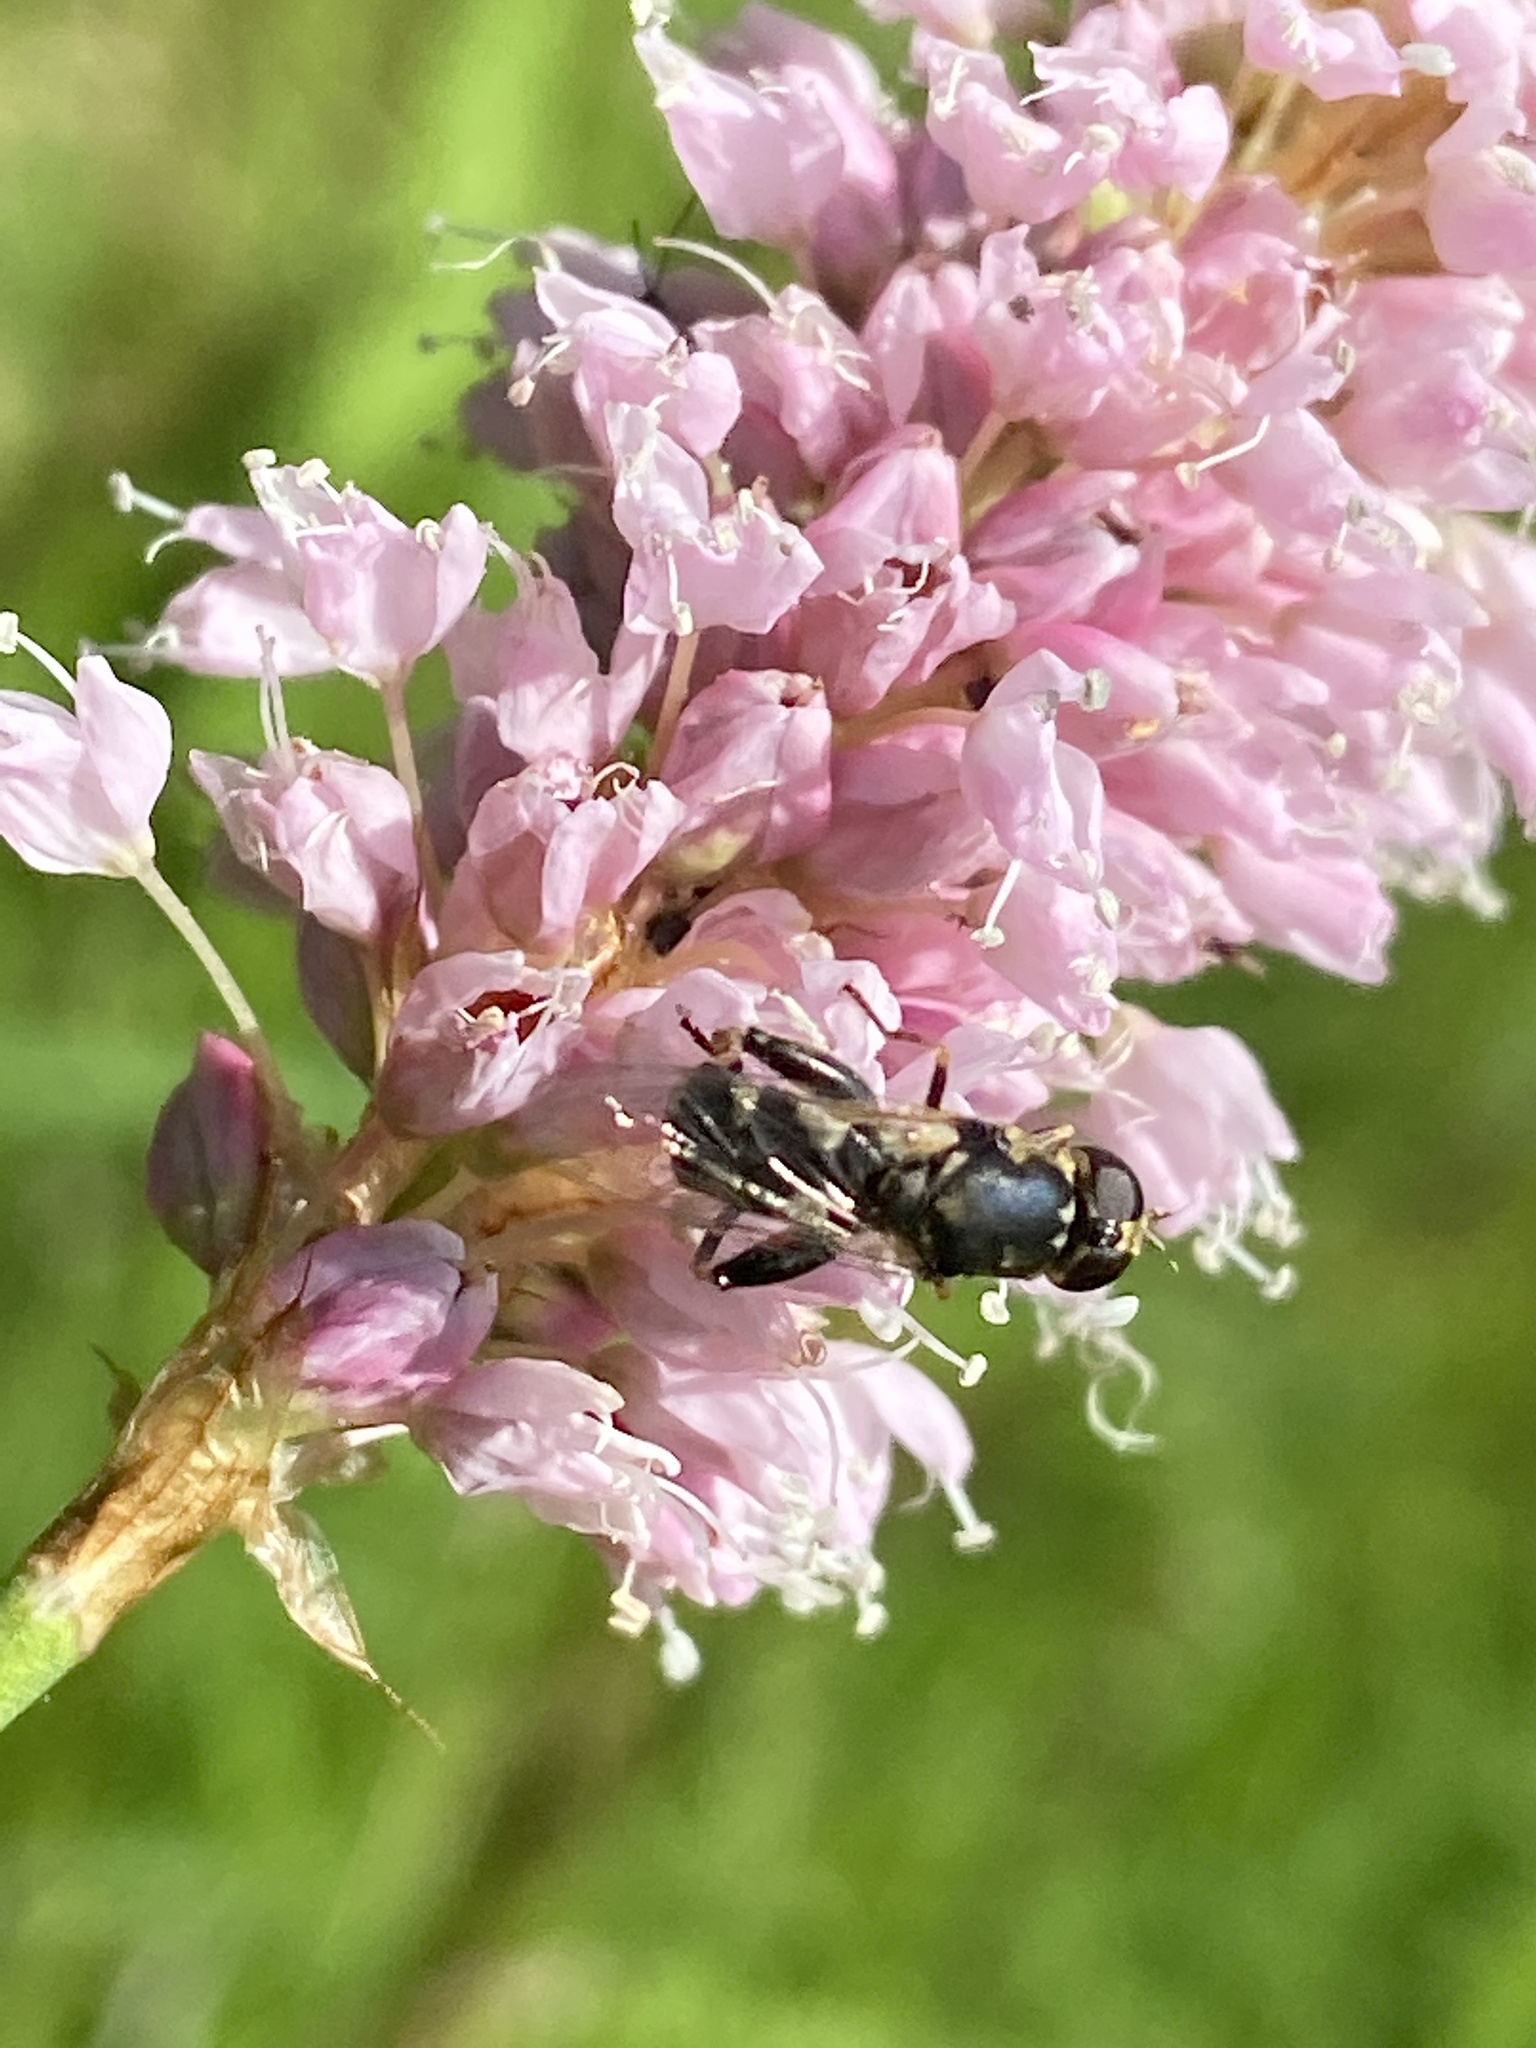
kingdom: Animalia
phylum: Arthropoda
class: Insecta
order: Diptera
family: Syrphidae
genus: Syritta
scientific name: Syritta pipiens
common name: Hover fly
